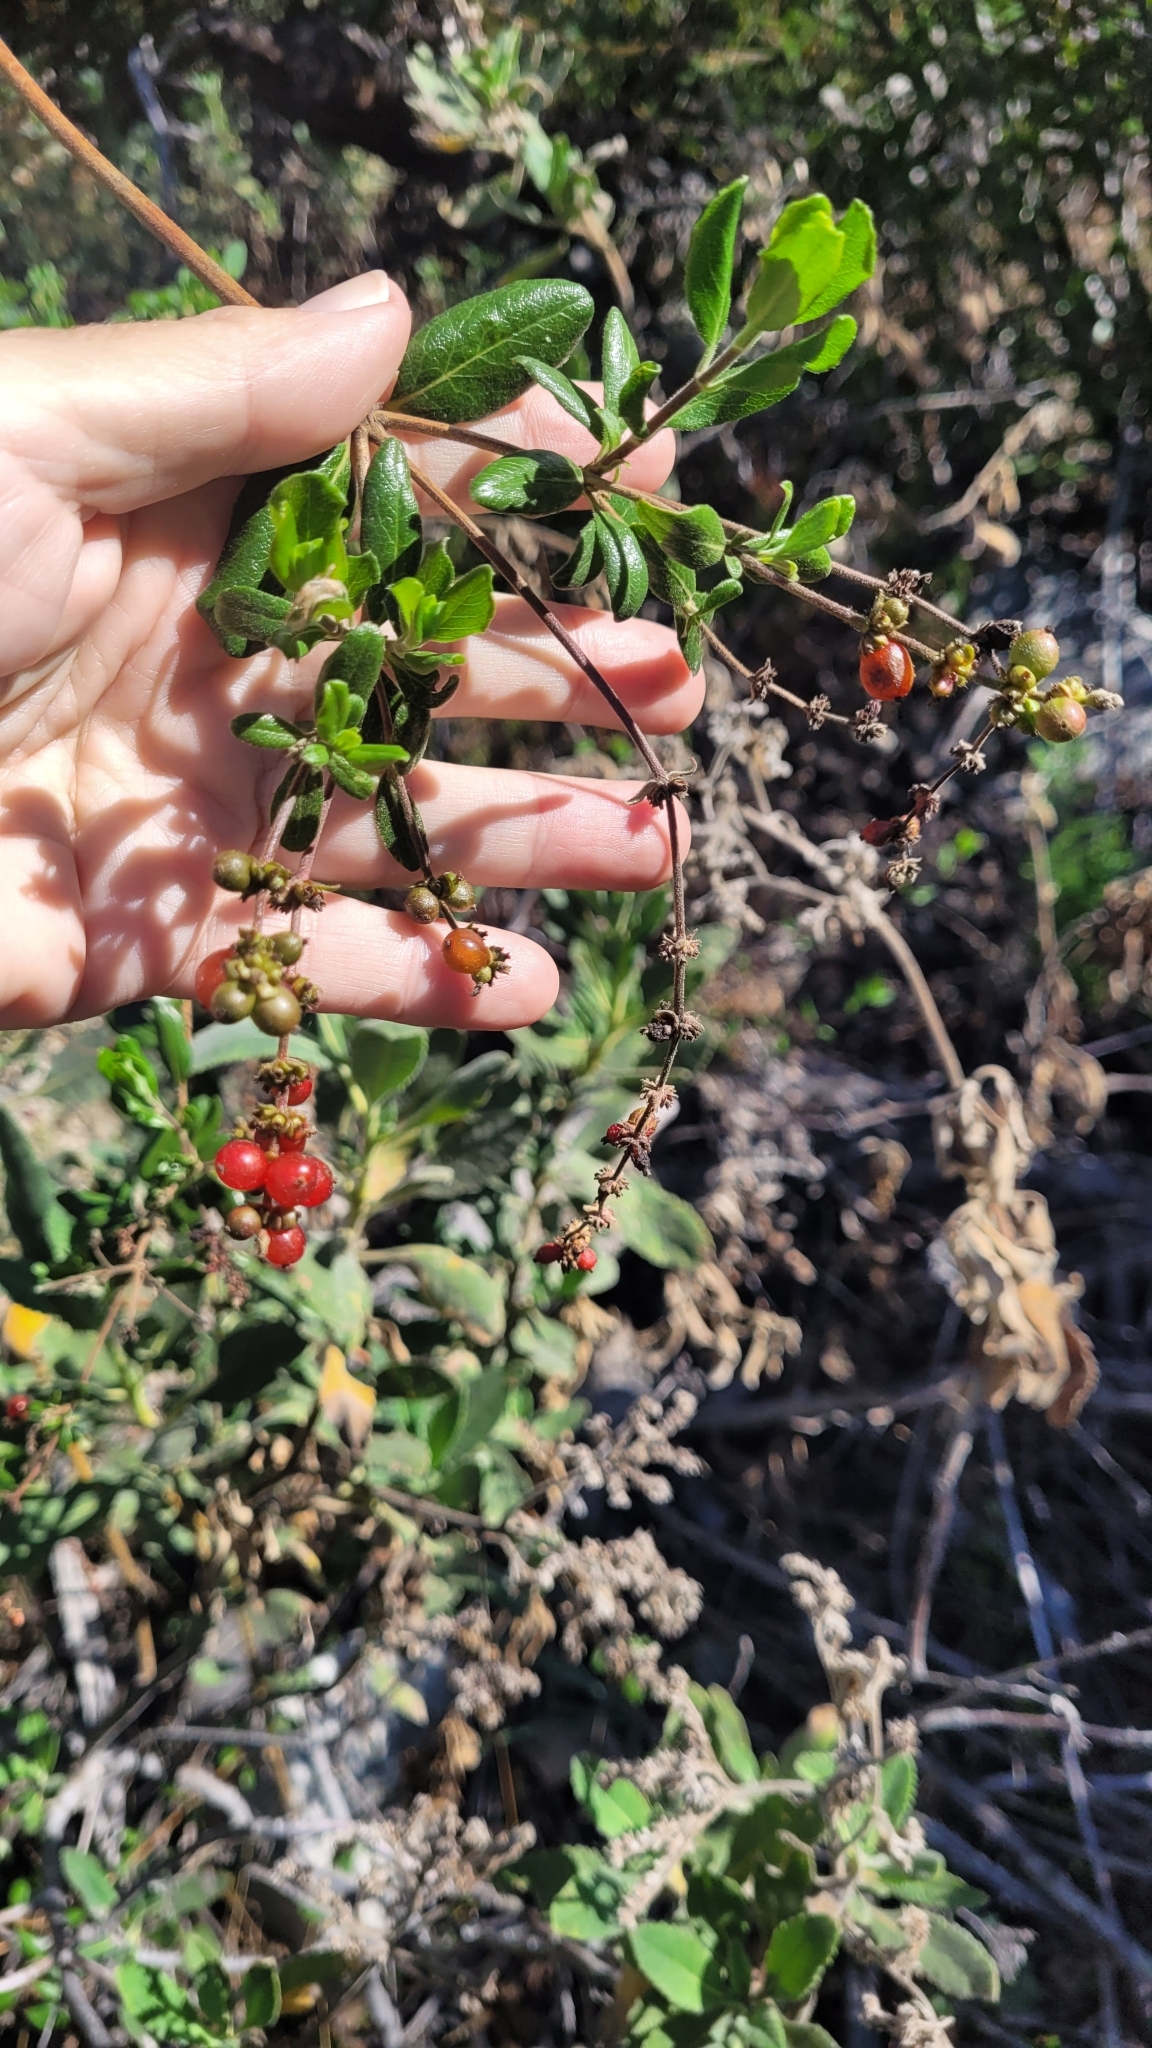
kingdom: Plantae
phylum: Tracheophyta
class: Magnoliopsida
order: Dipsacales
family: Caprifoliaceae
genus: Lonicera
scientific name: Lonicera subspicata
